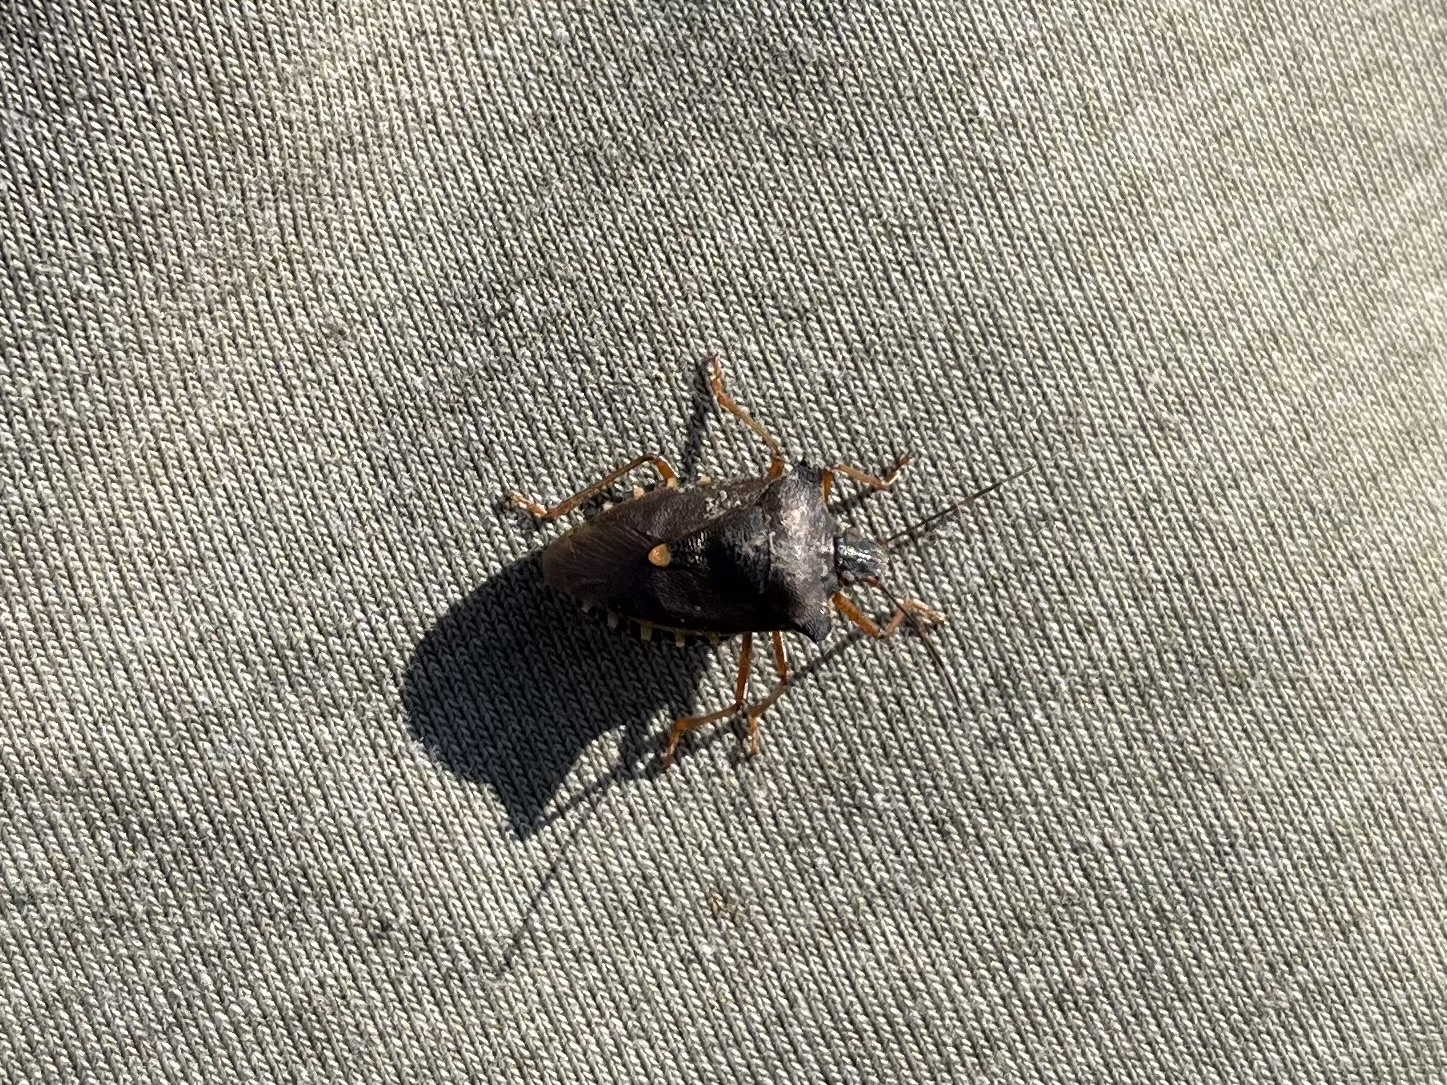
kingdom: Animalia
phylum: Arthropoda
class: Insecta
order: Hemiptera
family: Pentatomidae
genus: Pentatoma
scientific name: Pentatoma rufipes
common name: Forest bug
